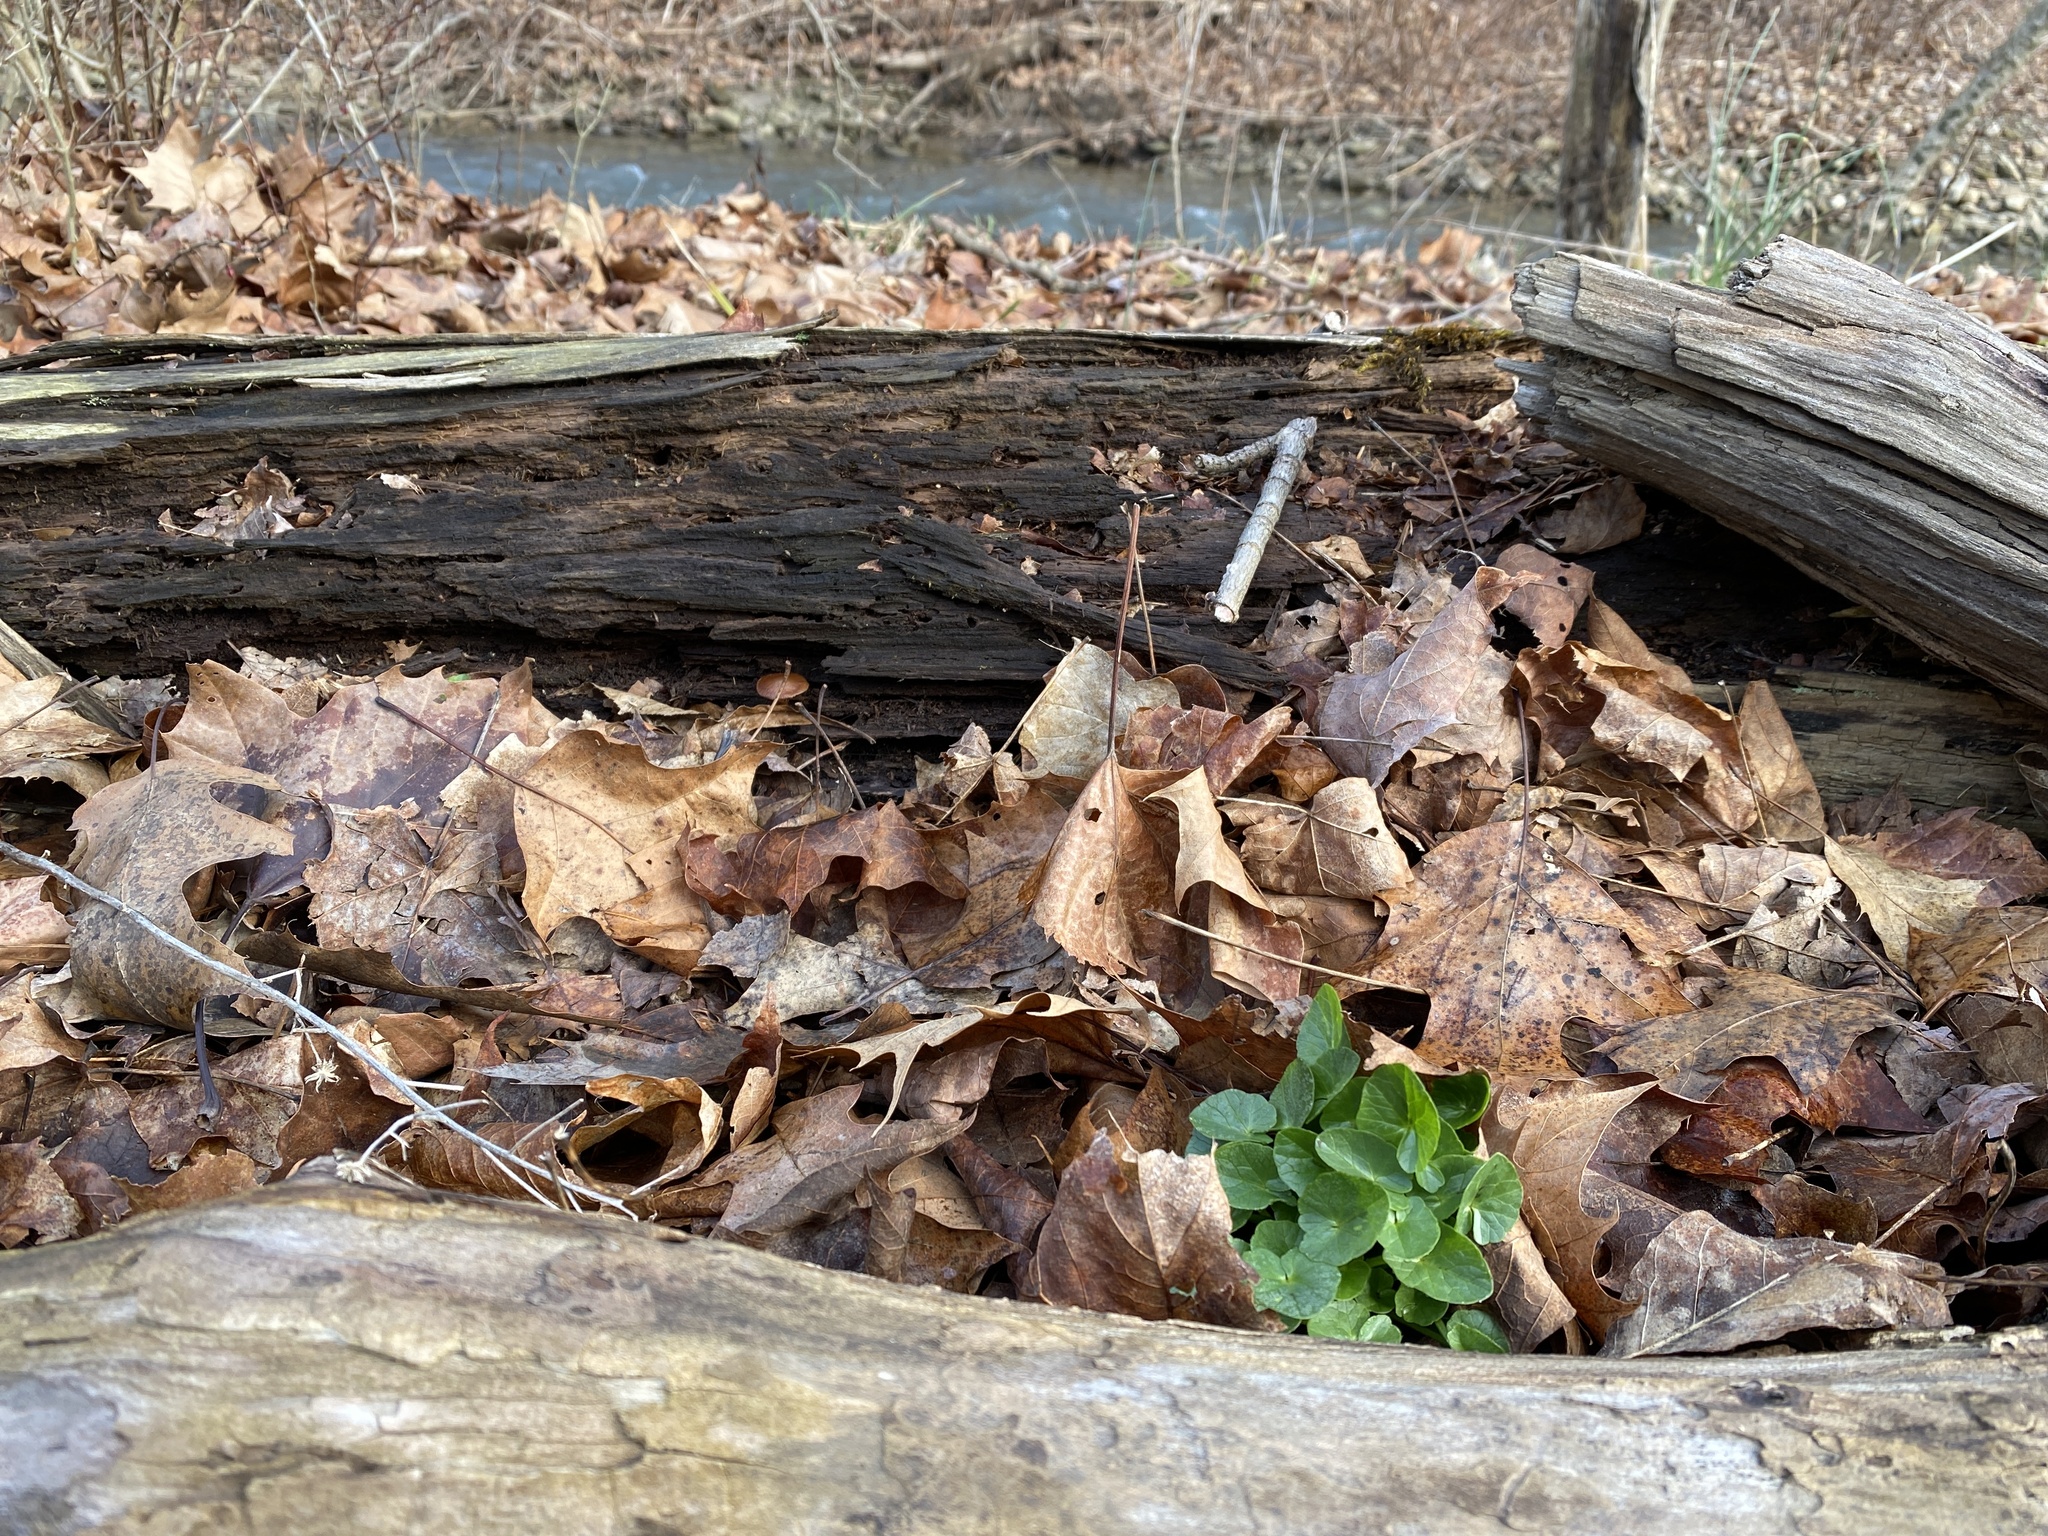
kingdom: Plantae
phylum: Tracheophyta
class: Magnoliopsida
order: Ranunculales
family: Ranunculaceae
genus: Ficaria
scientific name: Ficaria verna
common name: Lesser celandine
